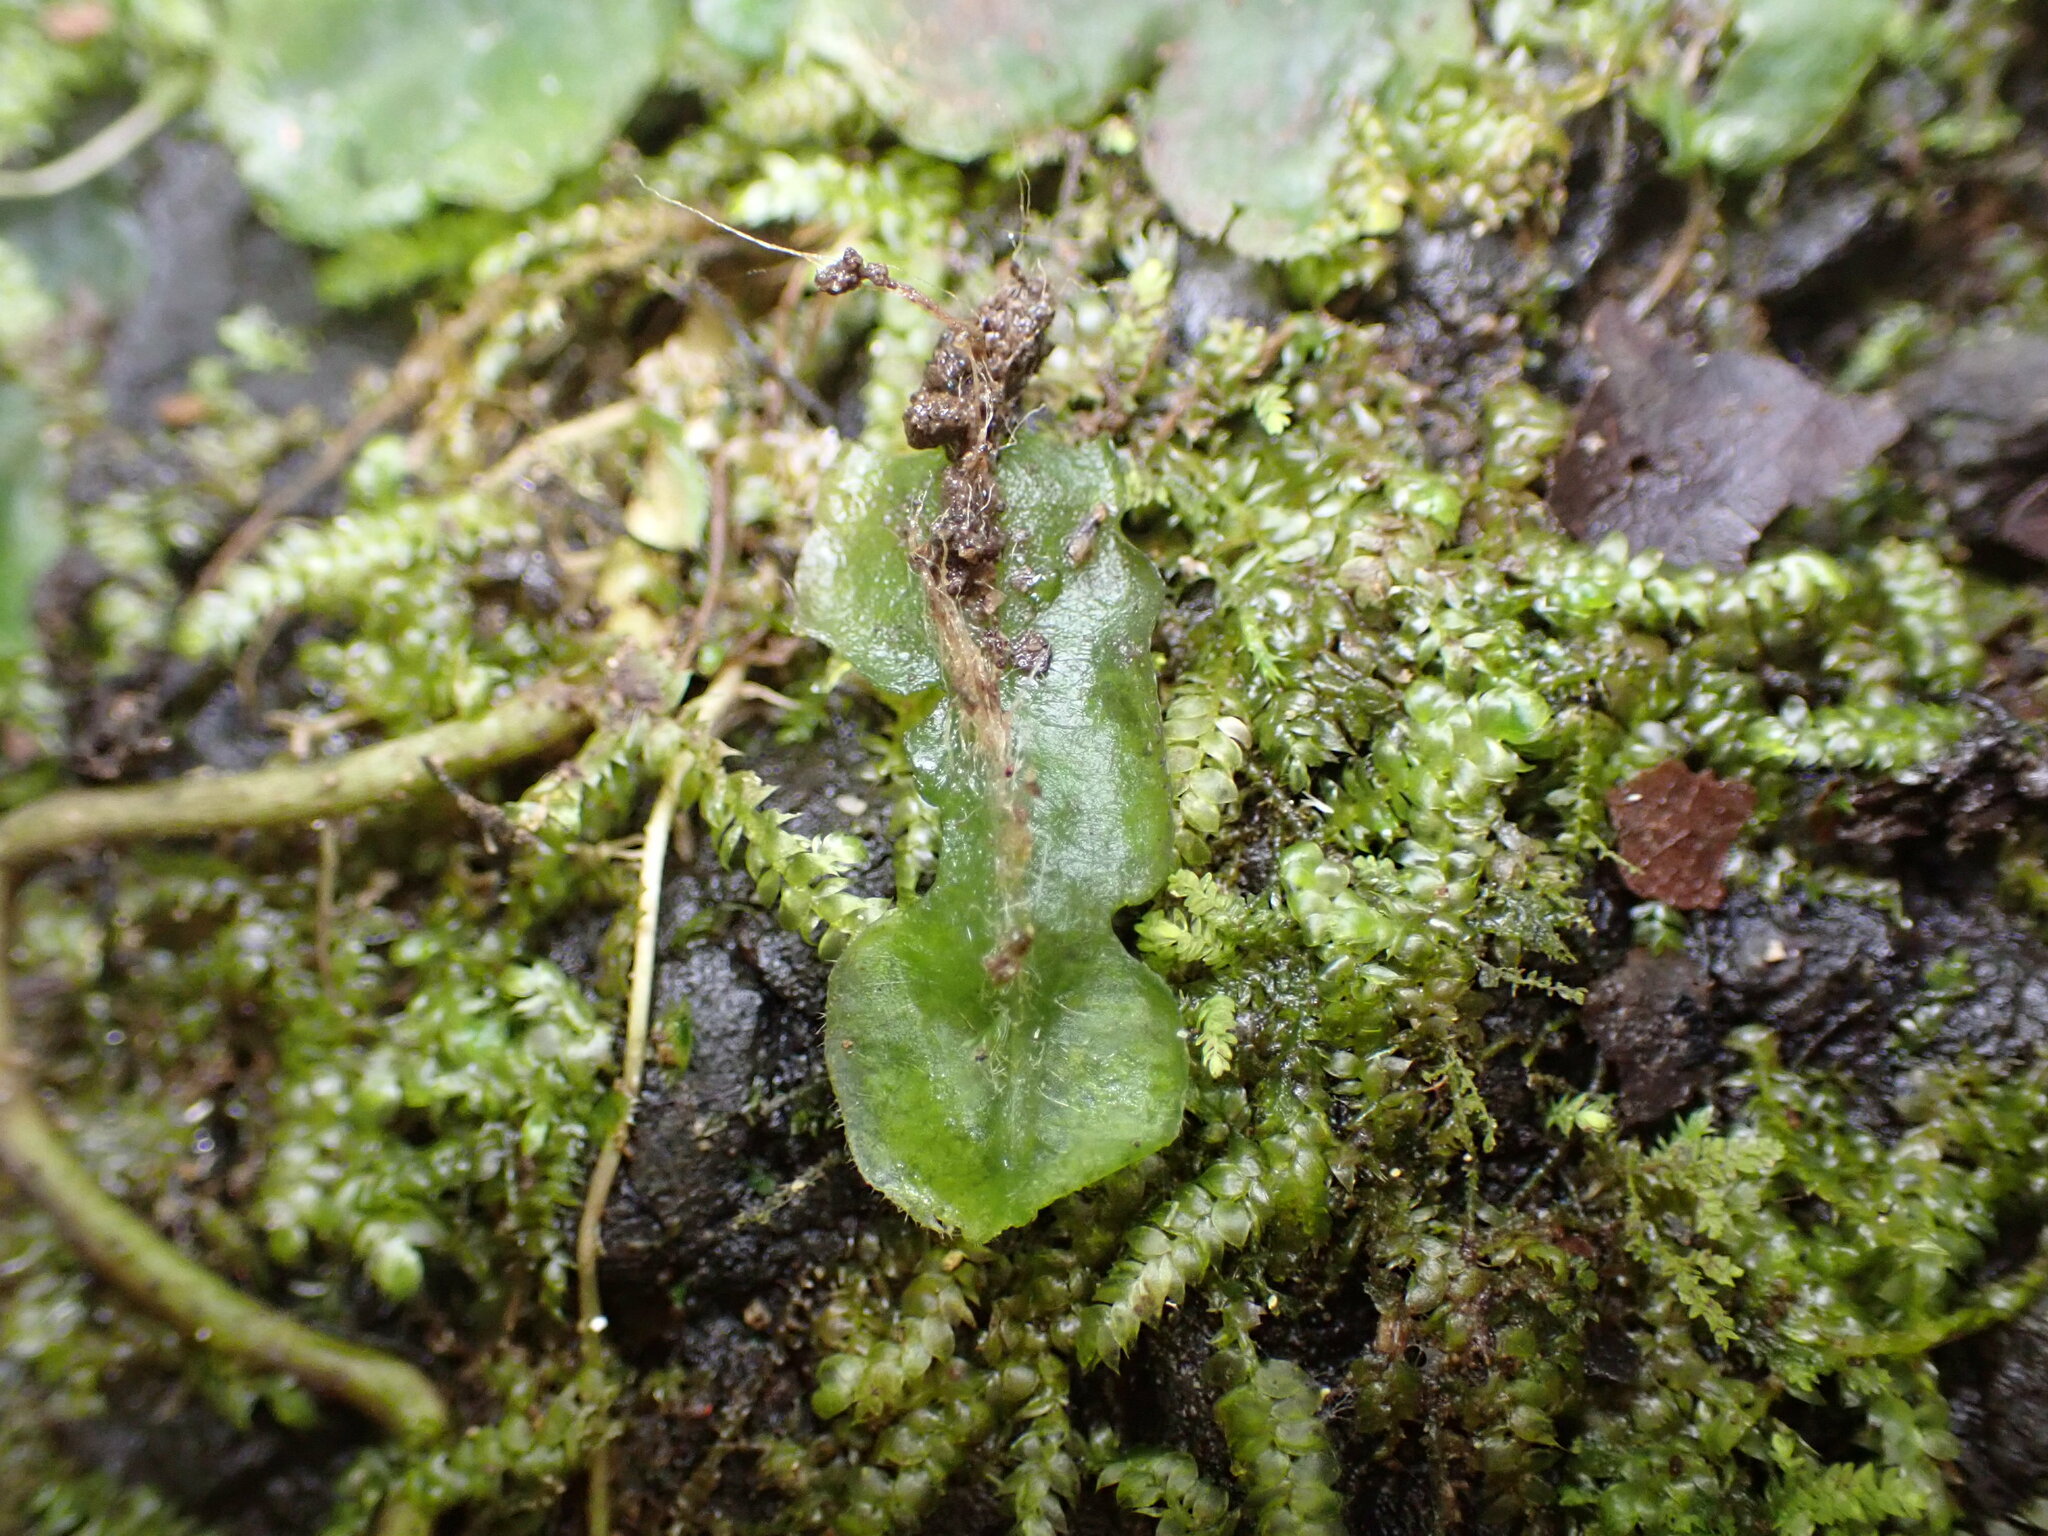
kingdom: Plantae
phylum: Marchantiophyta
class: Marchantiopsida
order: Marchantiales
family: Dumortieraceae
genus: Dumortiera
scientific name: Dumortiera hirsuta
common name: Dumortier's liverwort
